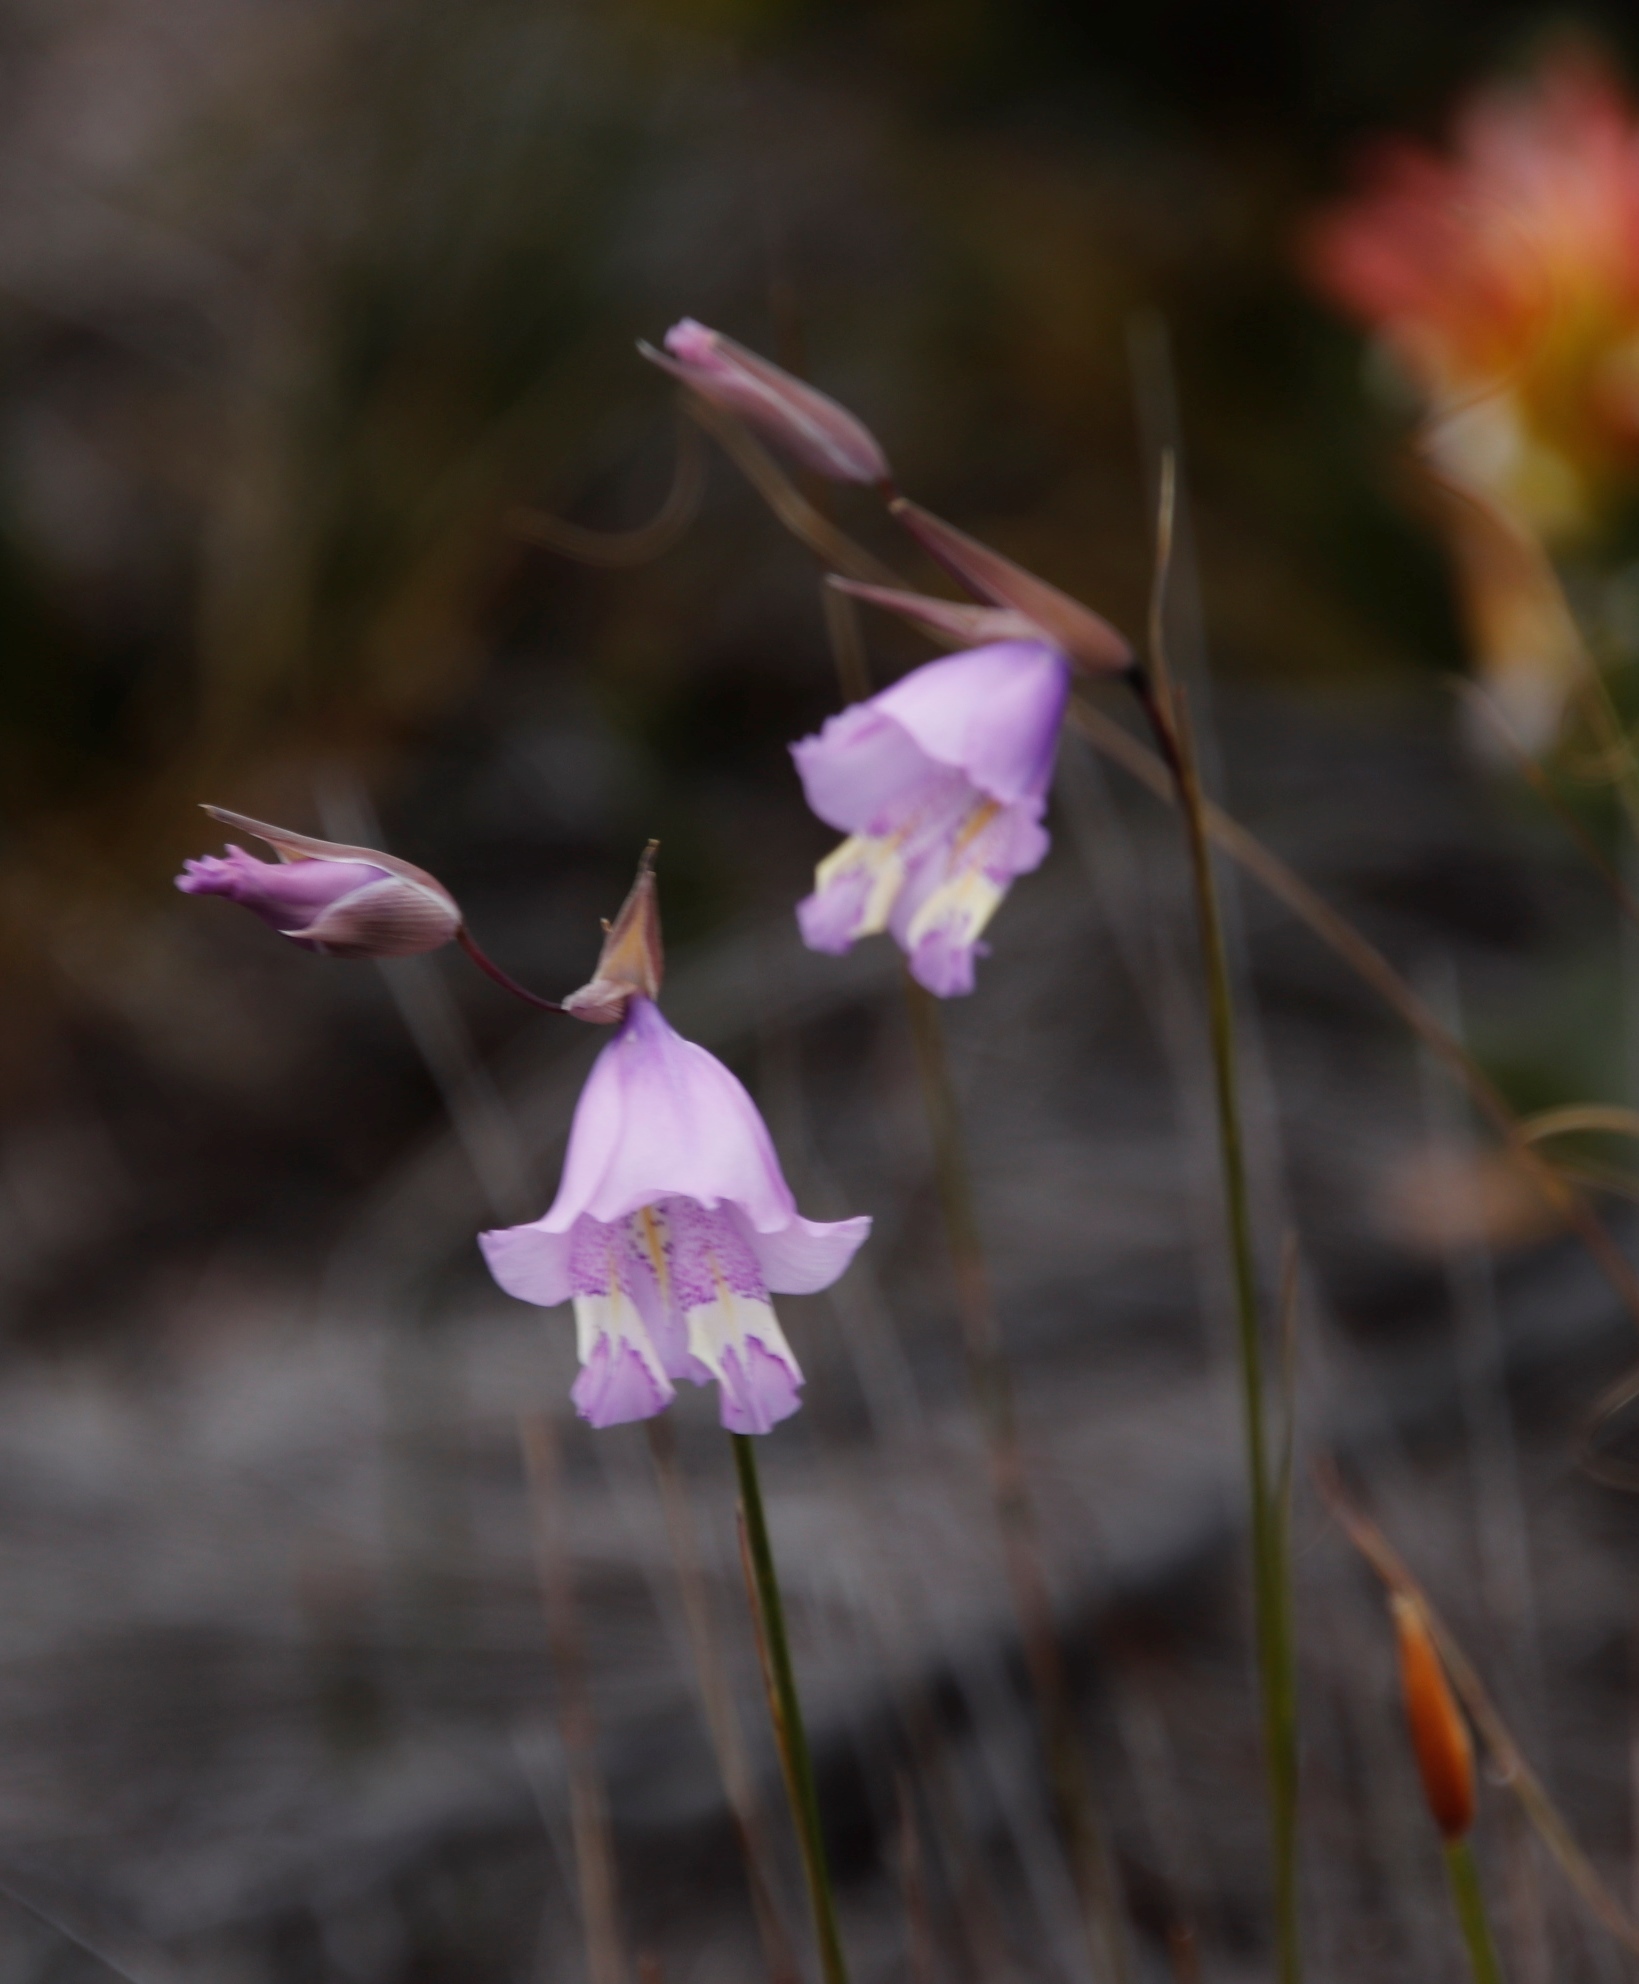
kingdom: Plantae
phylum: Tracheophyta
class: Liliopsida
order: Asparagales
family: Iridaceae
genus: Gladiolus
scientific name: Gladiolus bullatus
